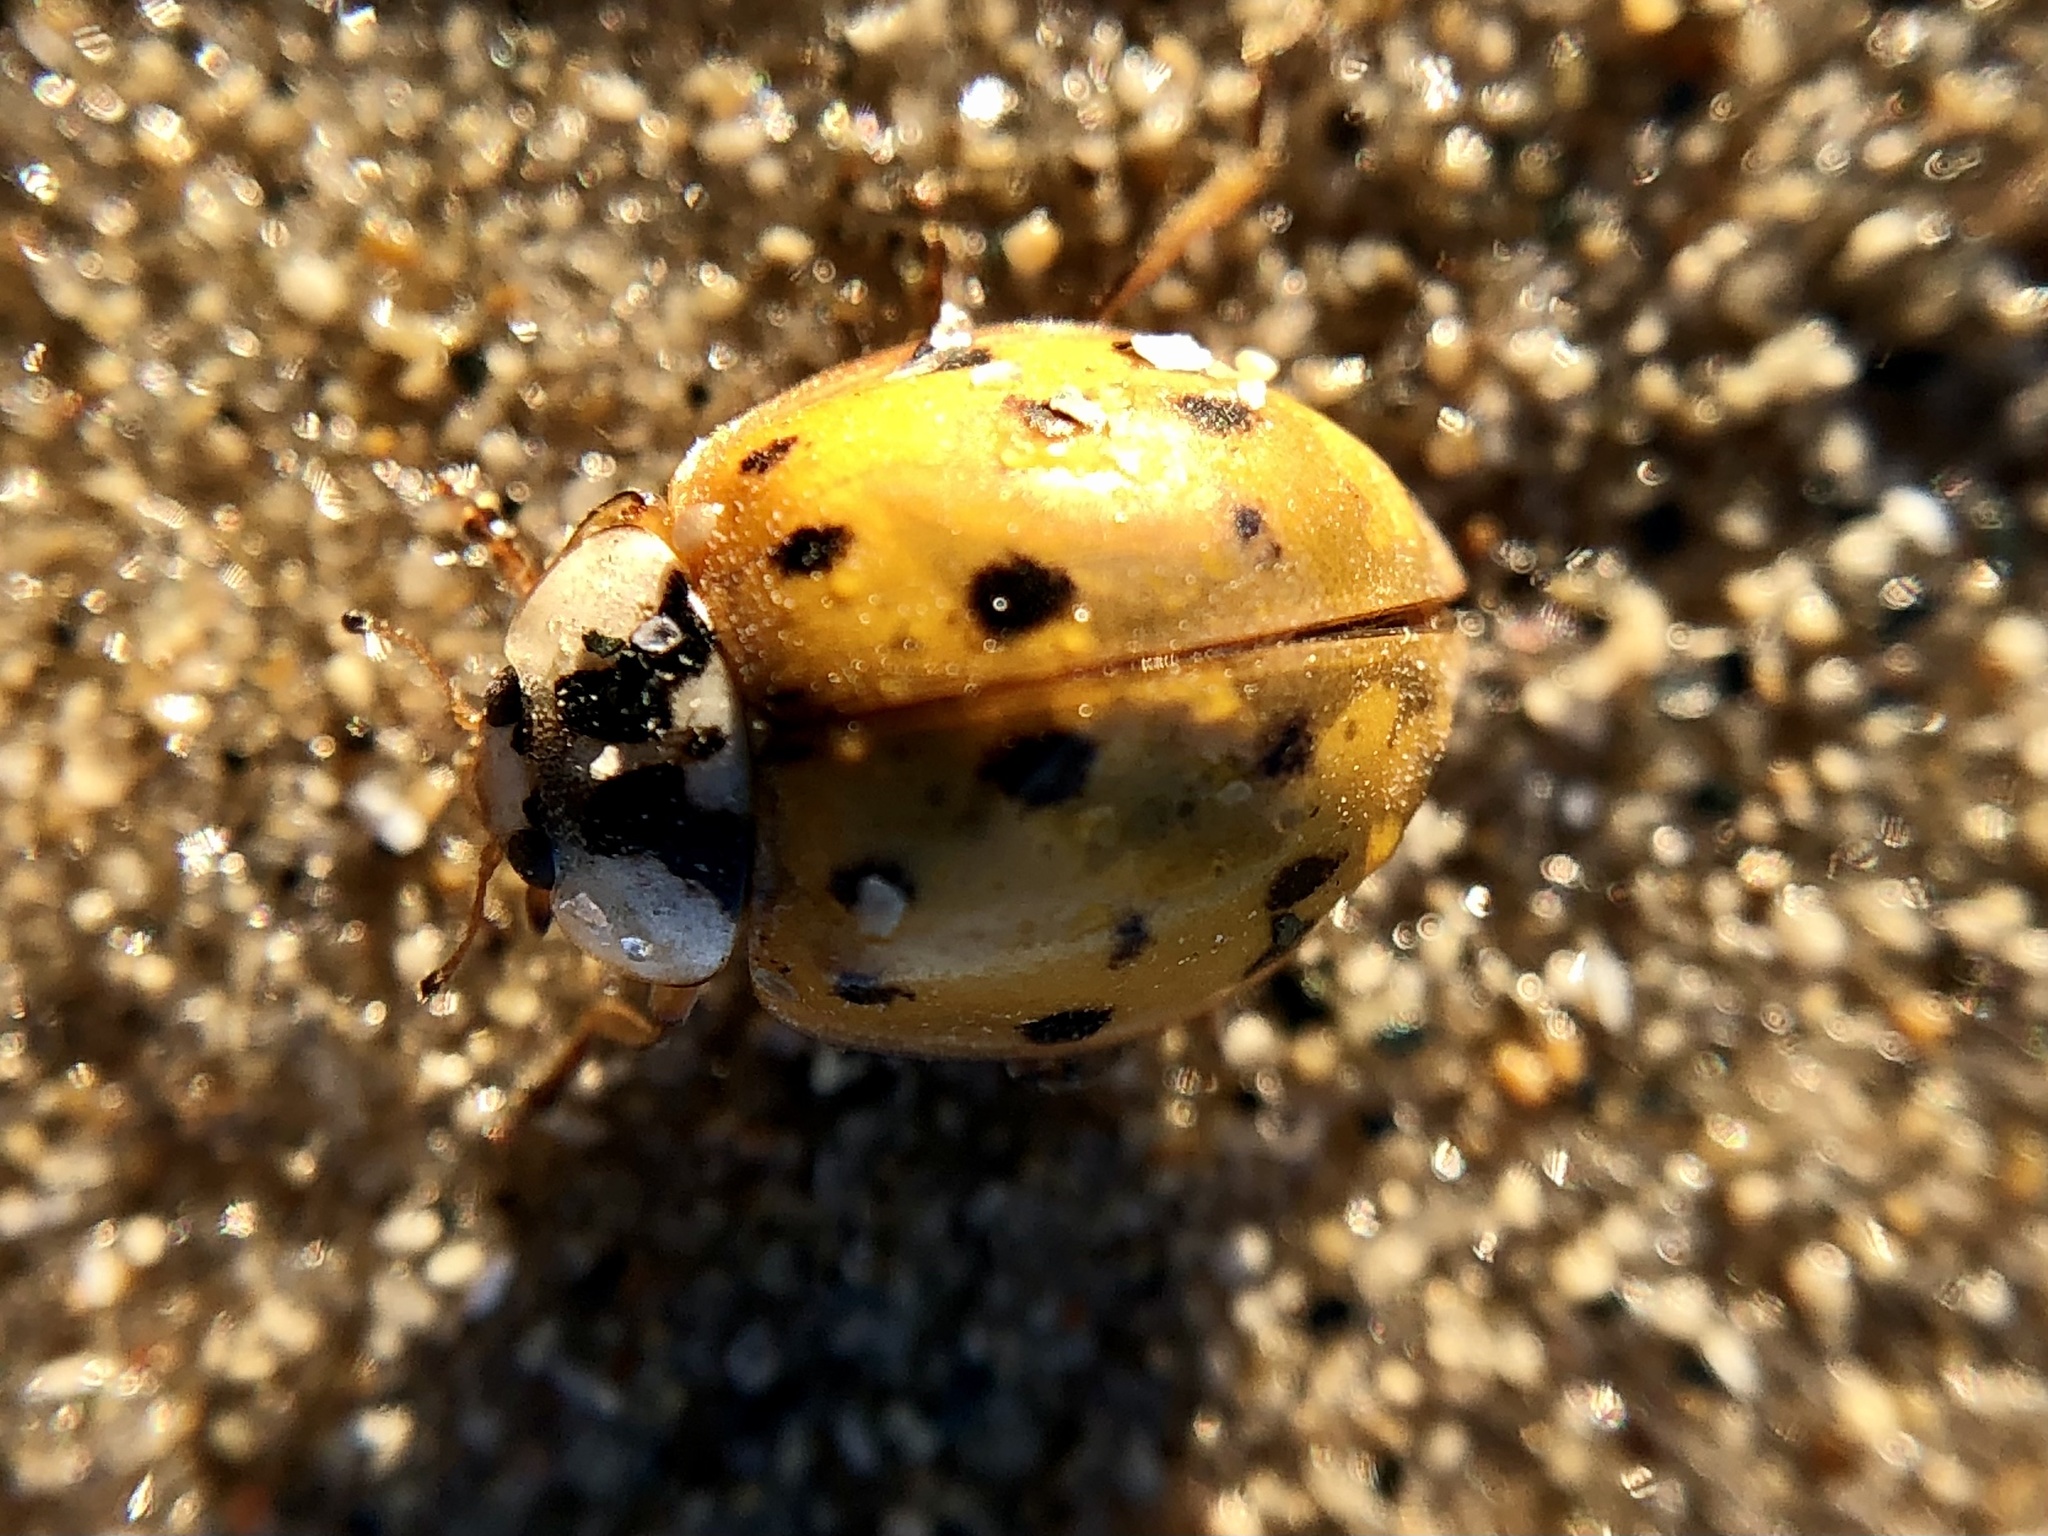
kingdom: Animalia
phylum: Arthropoda
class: Insecta
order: Coleoptera
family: Coccinellidae
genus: Harmonia
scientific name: Harmonia axyridis
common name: Harlequin ladybird
